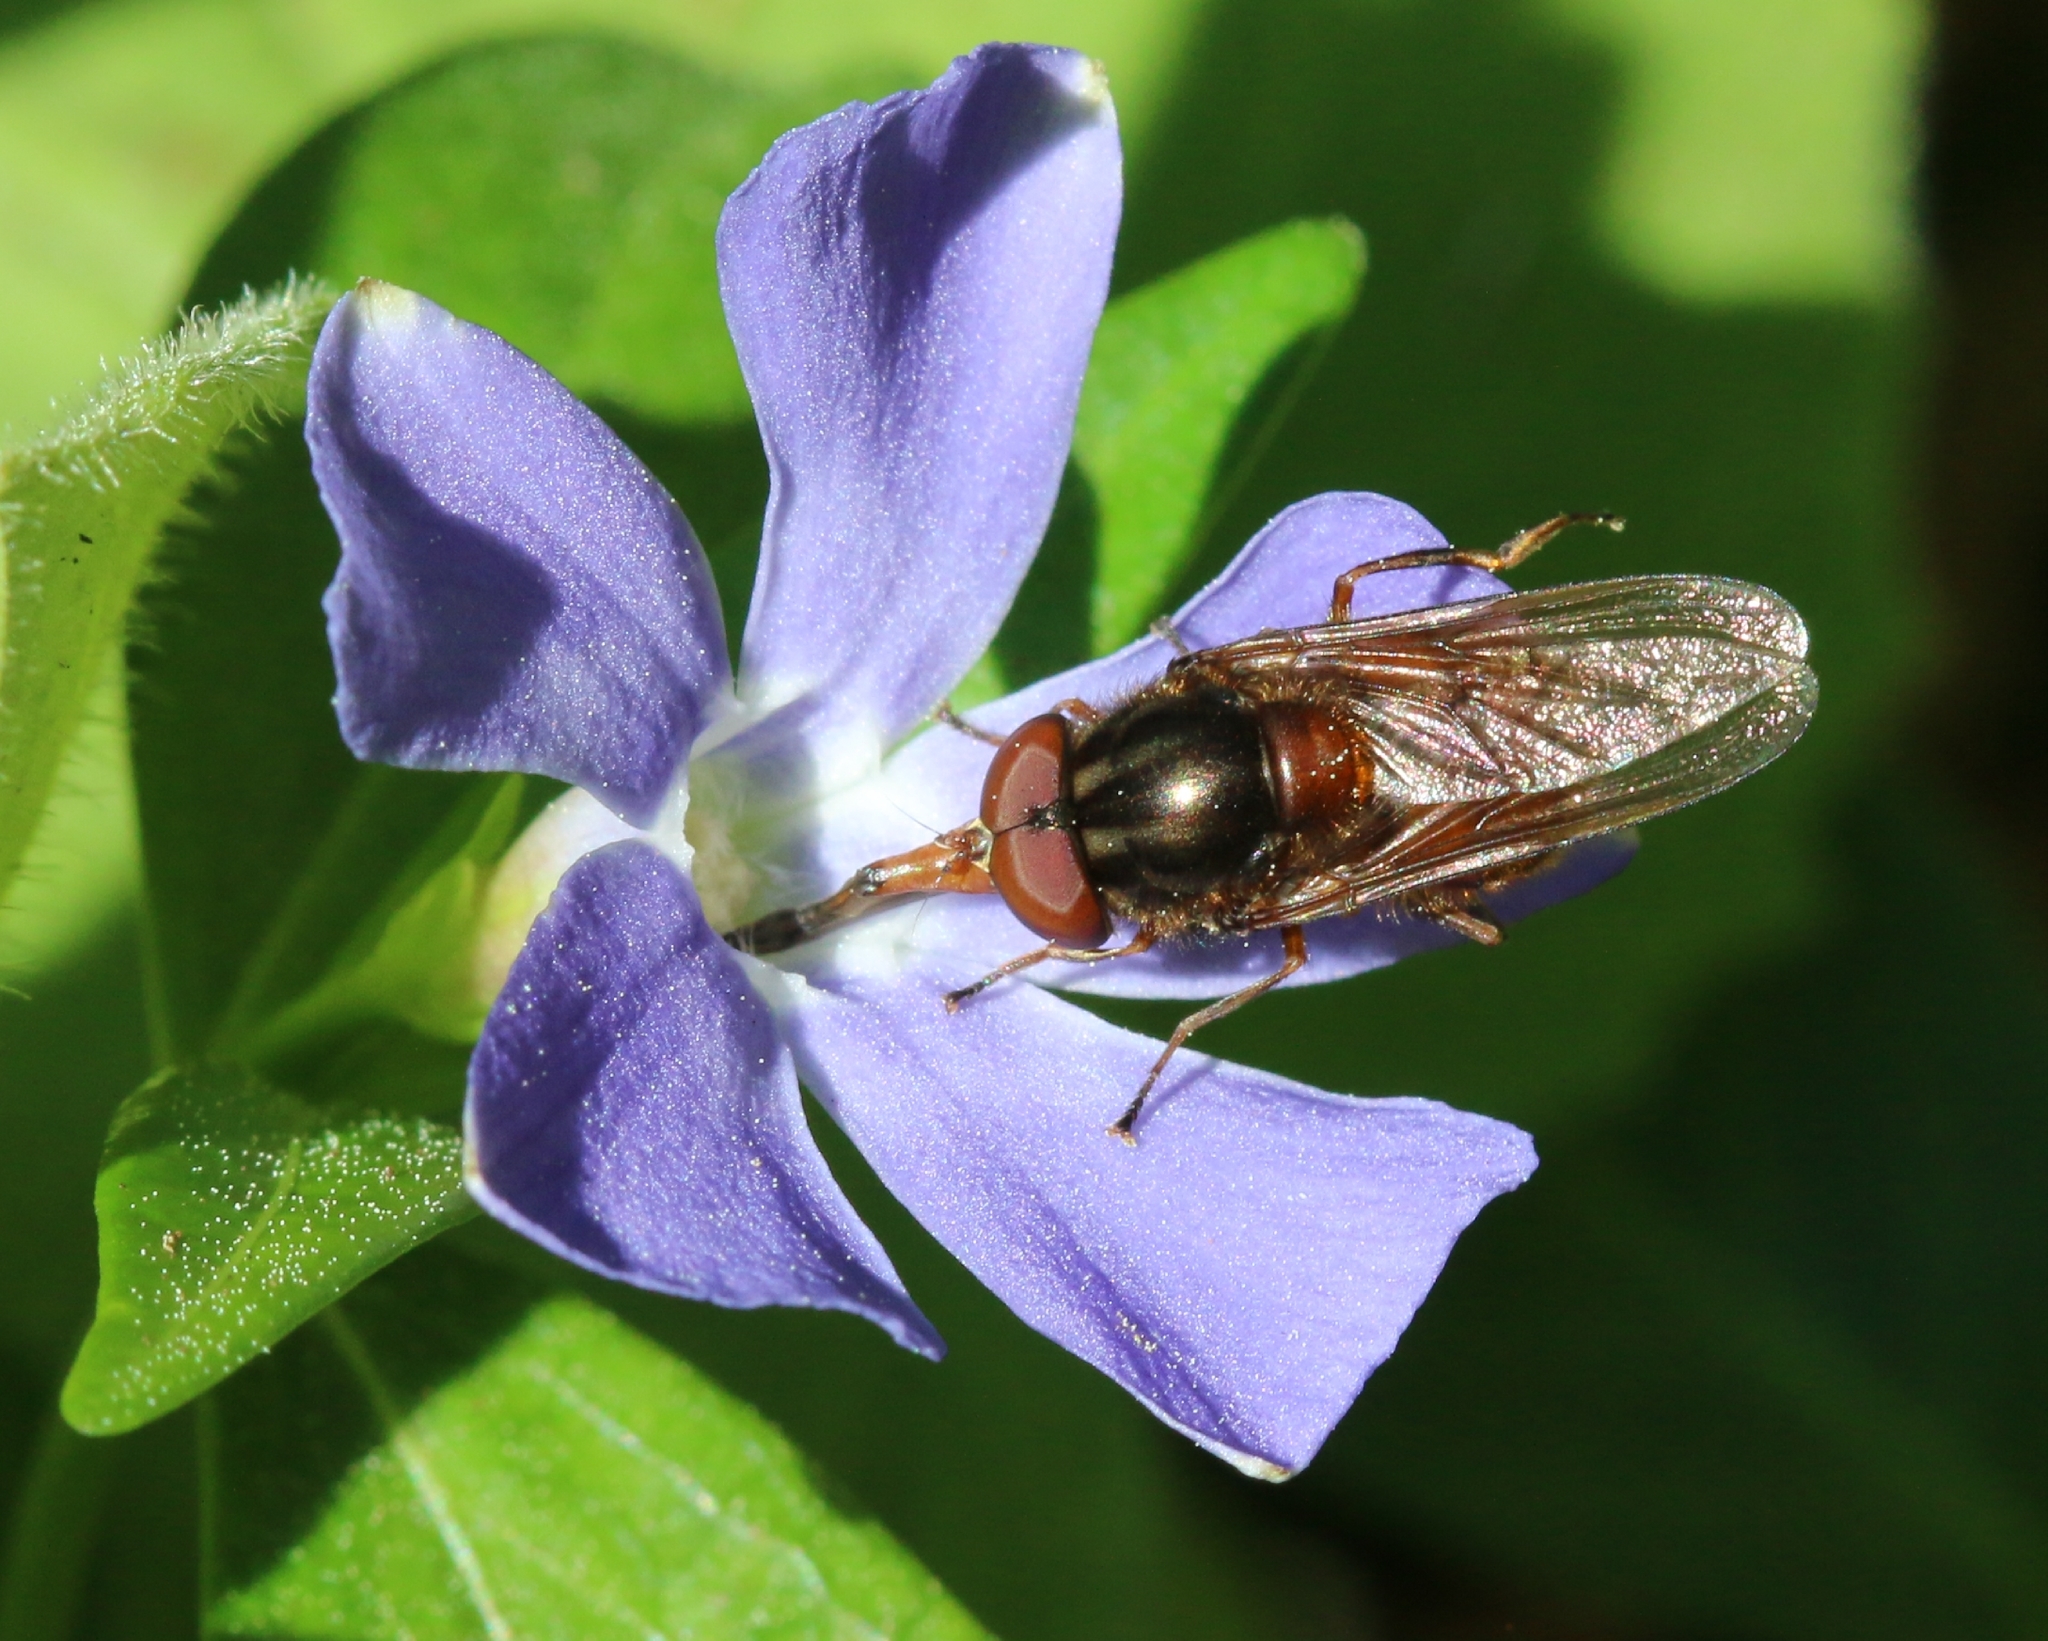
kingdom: Animalia
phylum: Arthropoda
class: Insecta
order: Diptera
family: Syrphidae
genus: Rhingia
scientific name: Rhingia campestris
